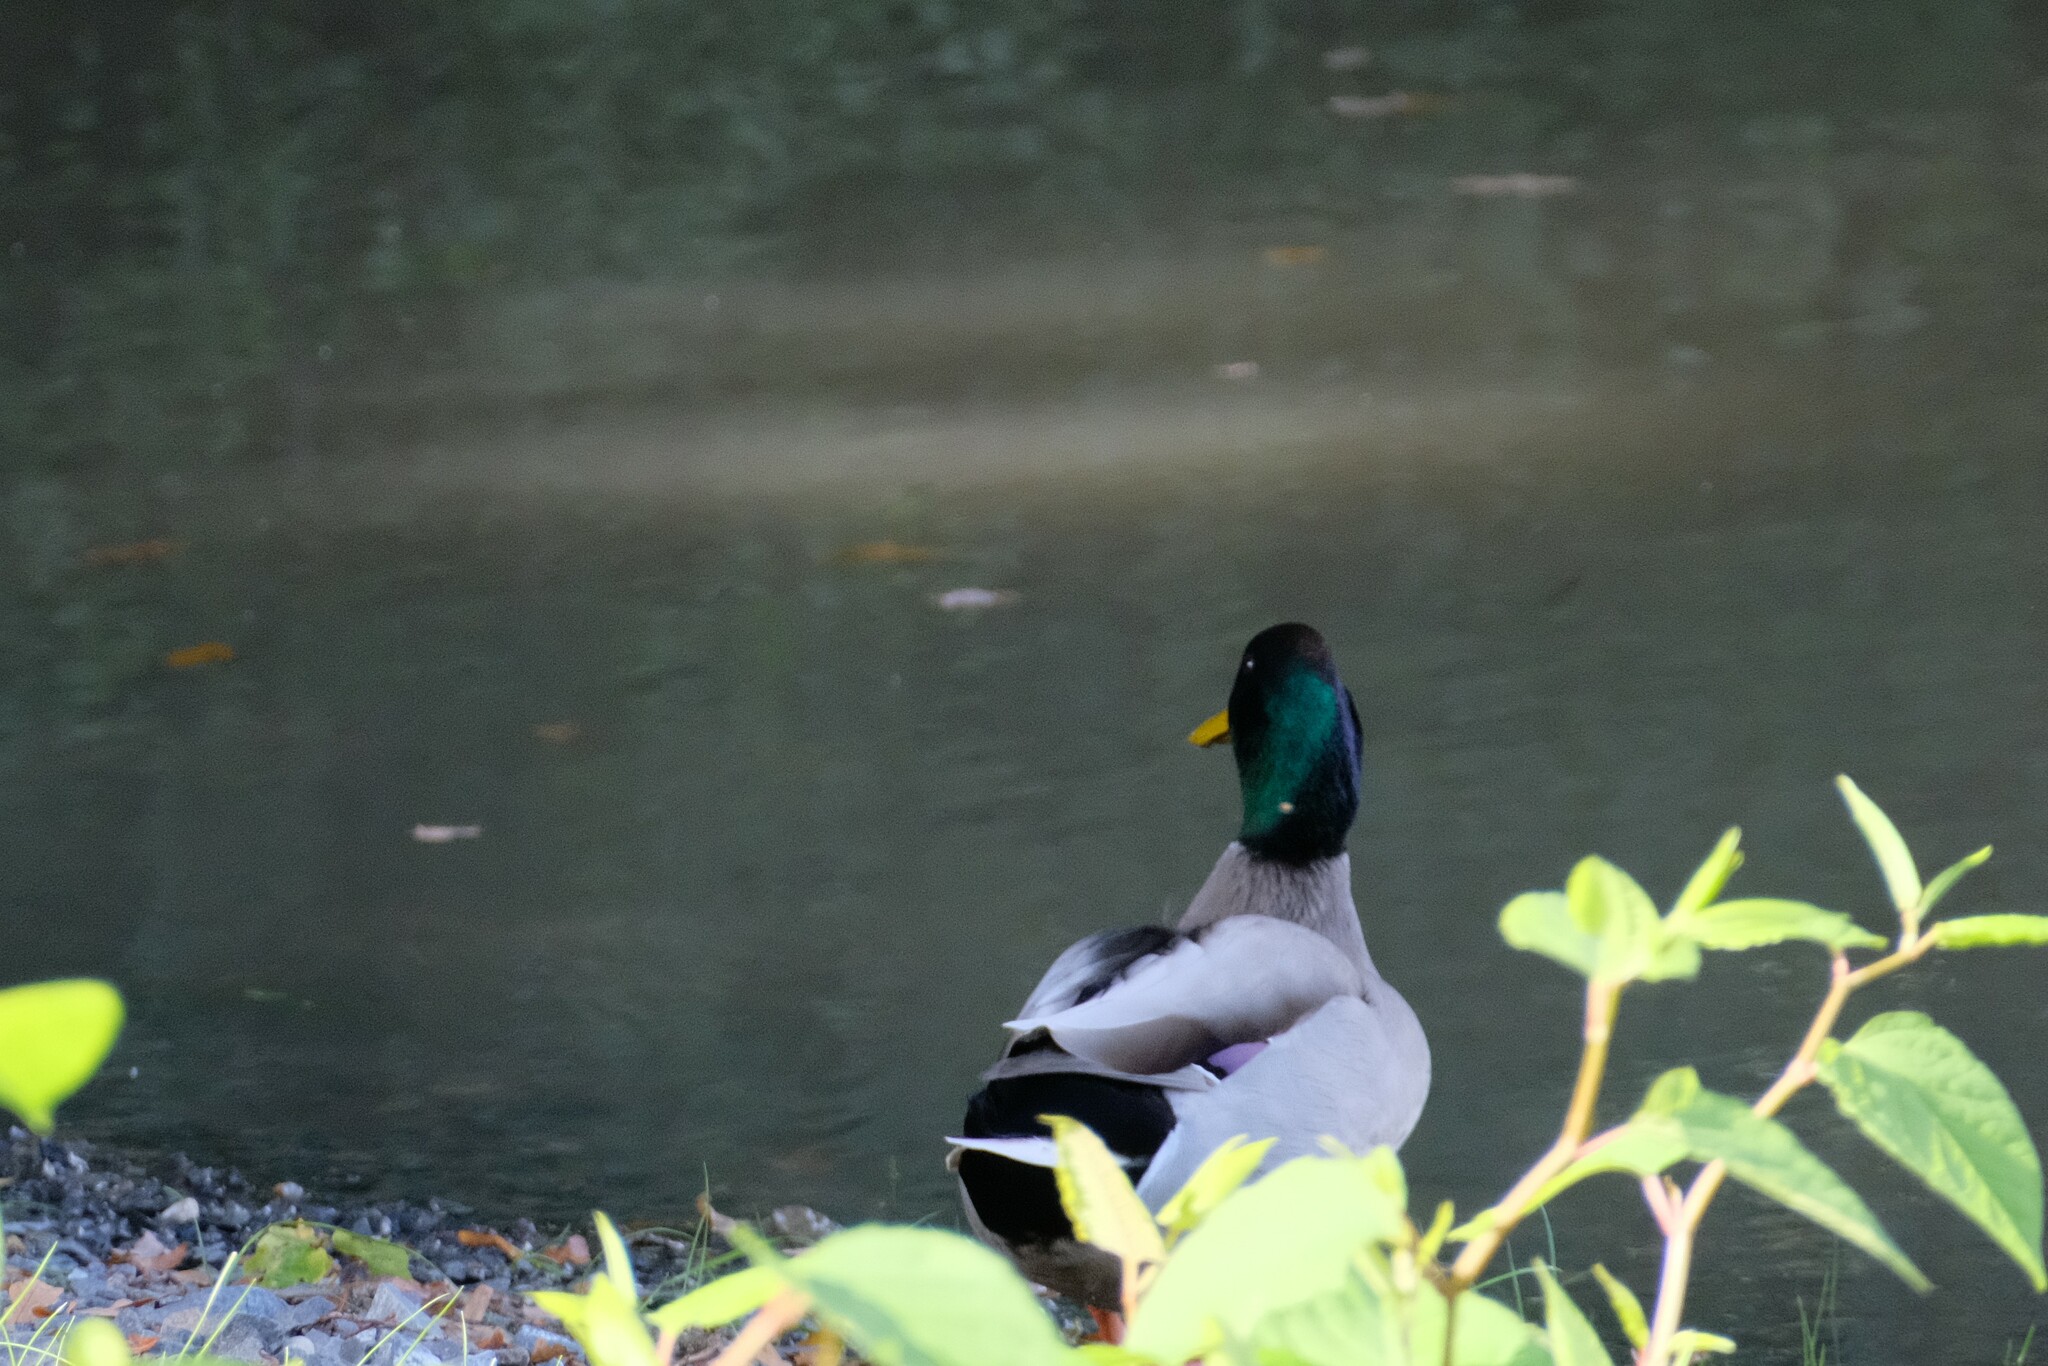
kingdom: Animalia
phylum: Chordata
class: Aves
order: Anseriformes
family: Anatidae
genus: Anas
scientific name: Anas platyrhynchos
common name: Mallard
